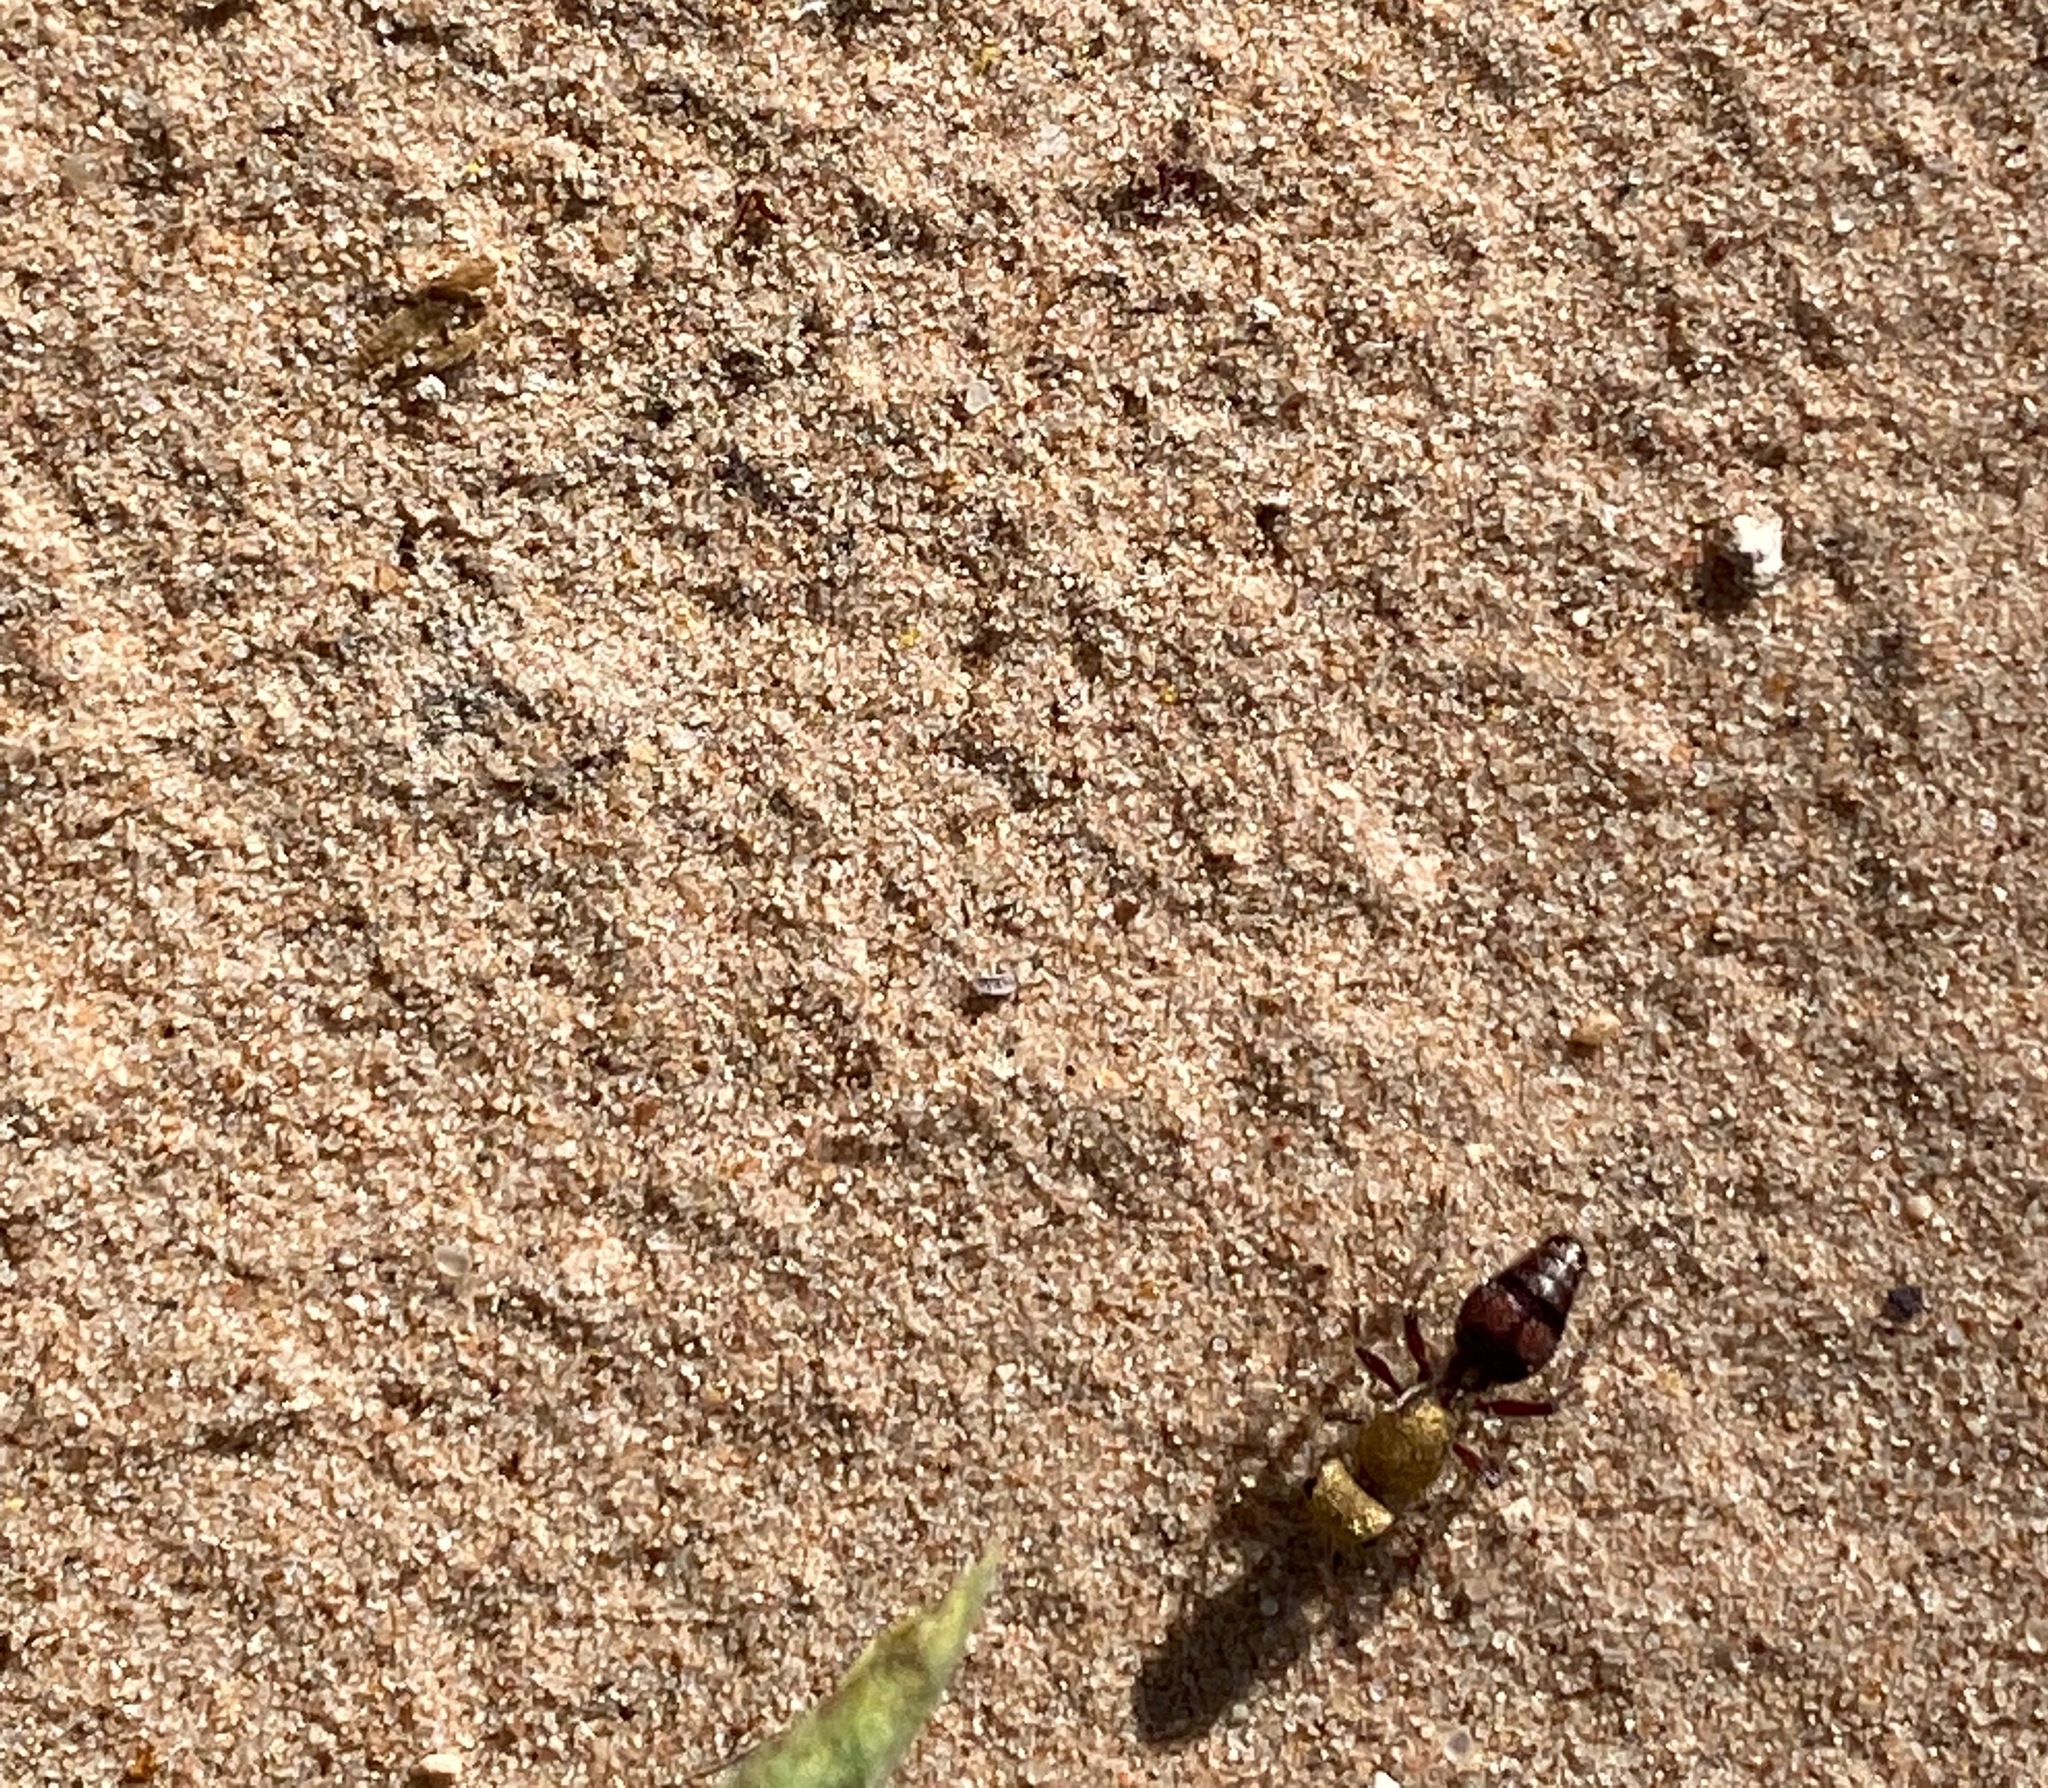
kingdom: Animalia
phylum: Arthropoda
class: Insecta
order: Hymenoptera
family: Mutillidae
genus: Dasymutilla
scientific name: Dasymutilla
